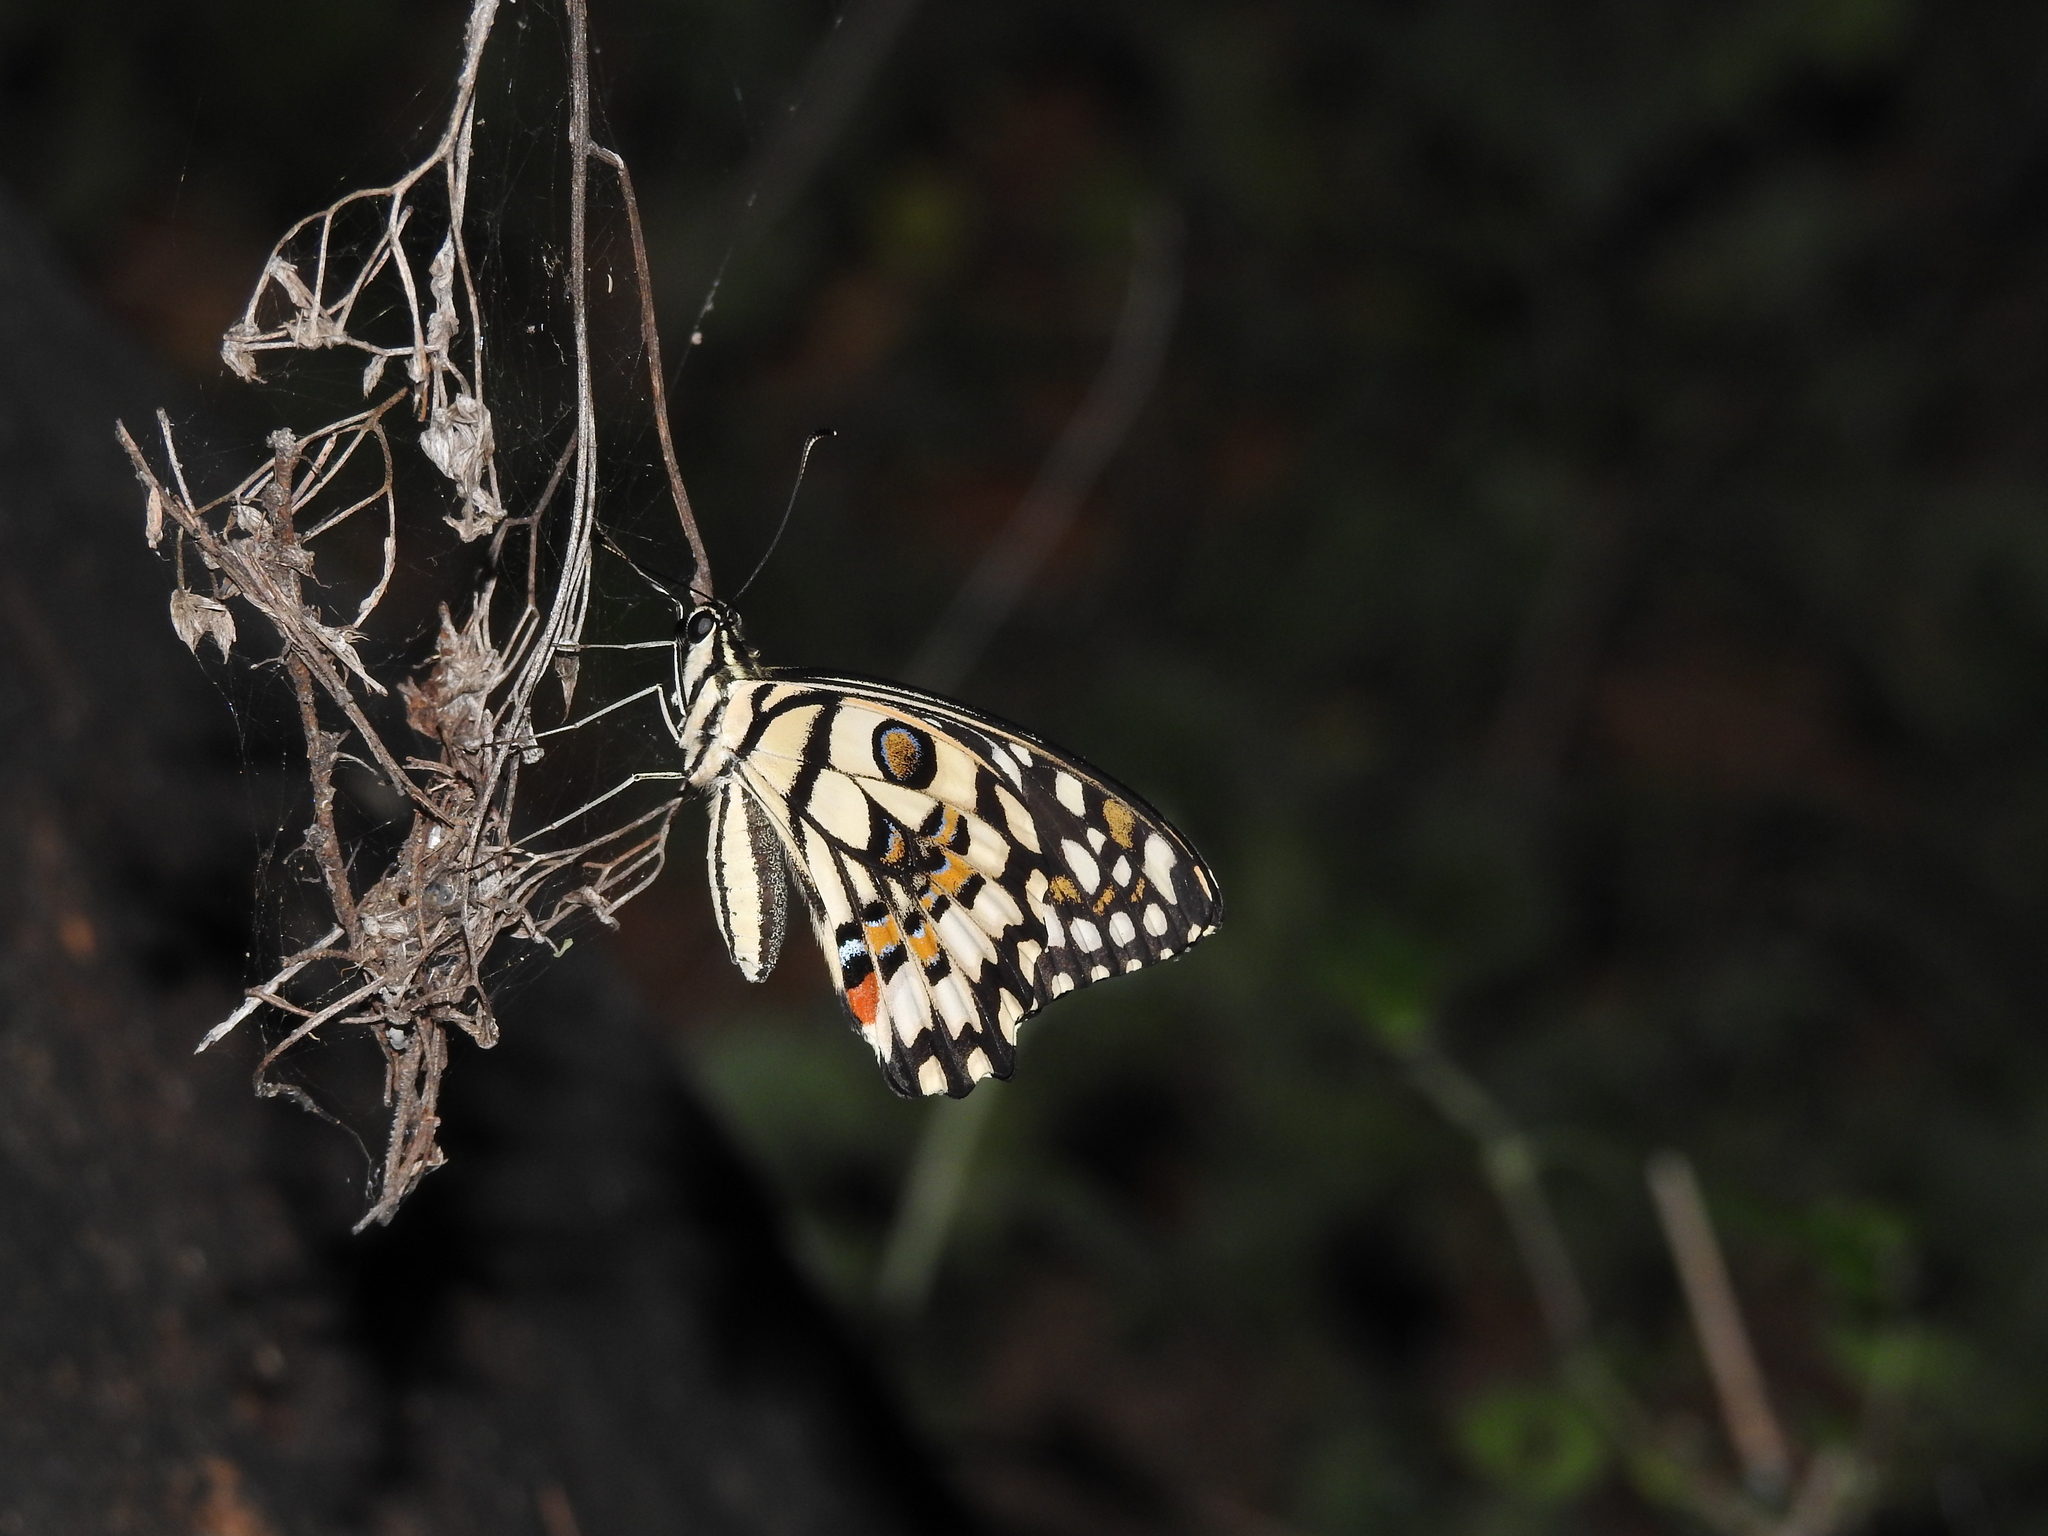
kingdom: Animalia
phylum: Arthropoda
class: Insecta
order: Lepidoptera
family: Papilionidae
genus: Papilio
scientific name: Papilio demoleus
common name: Lime butterfly
